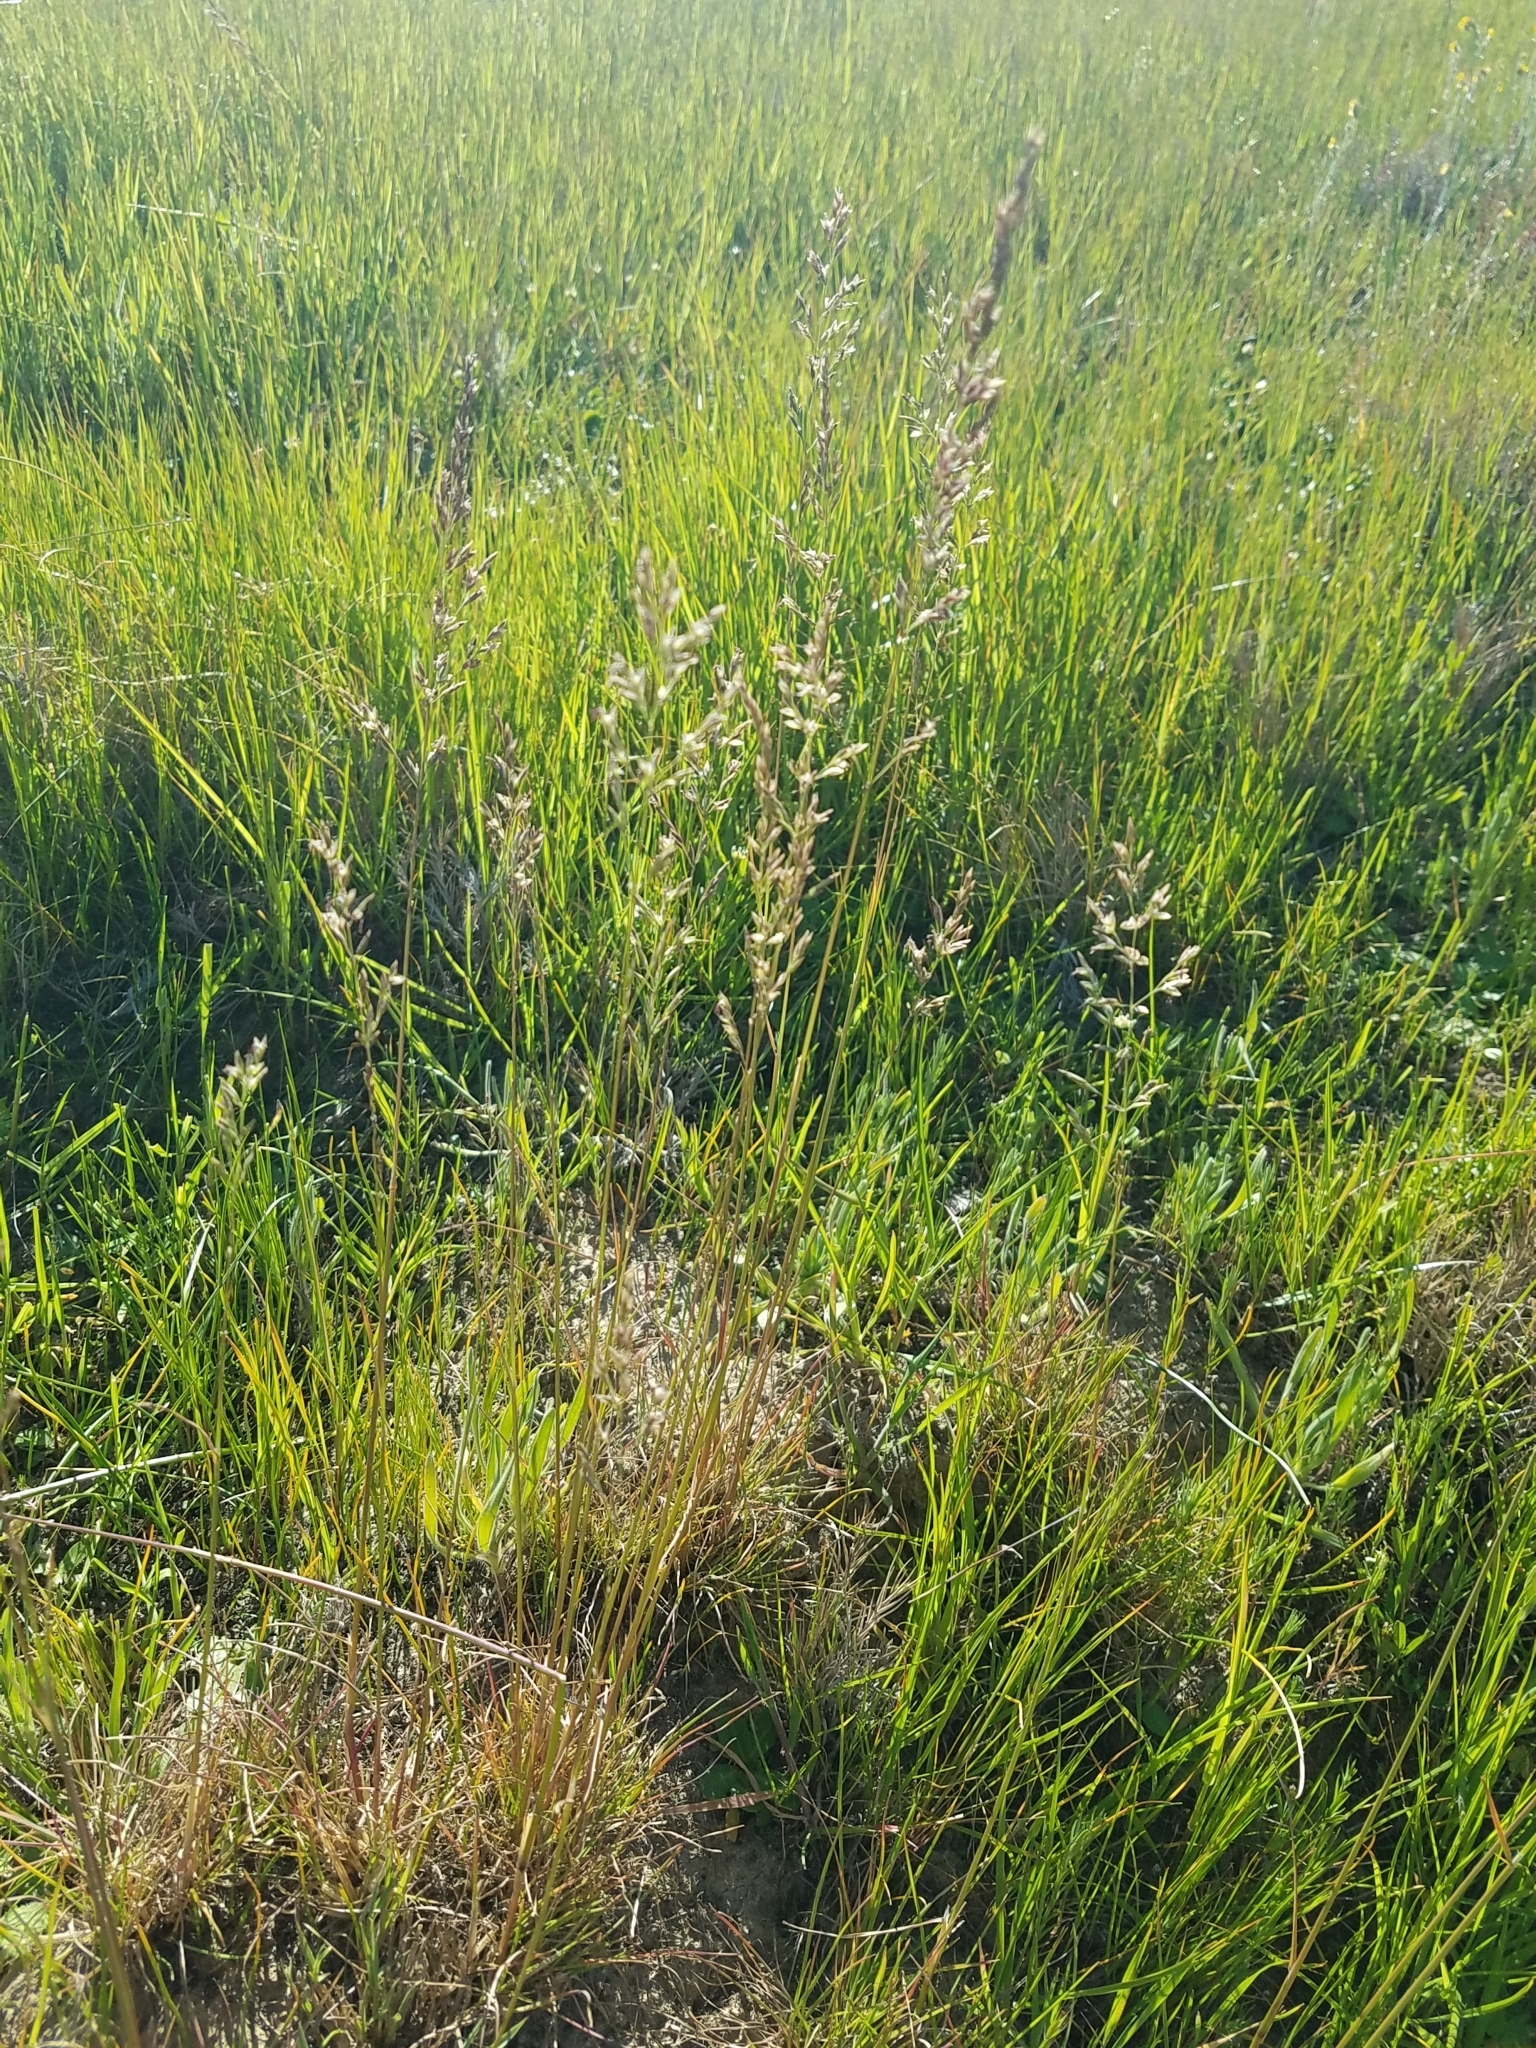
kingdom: Plantae
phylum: Tracheophyta
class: Liliopsida
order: Poales
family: Poaceae
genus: Poa
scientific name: Poa secunda
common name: Sandberg bluegrass
